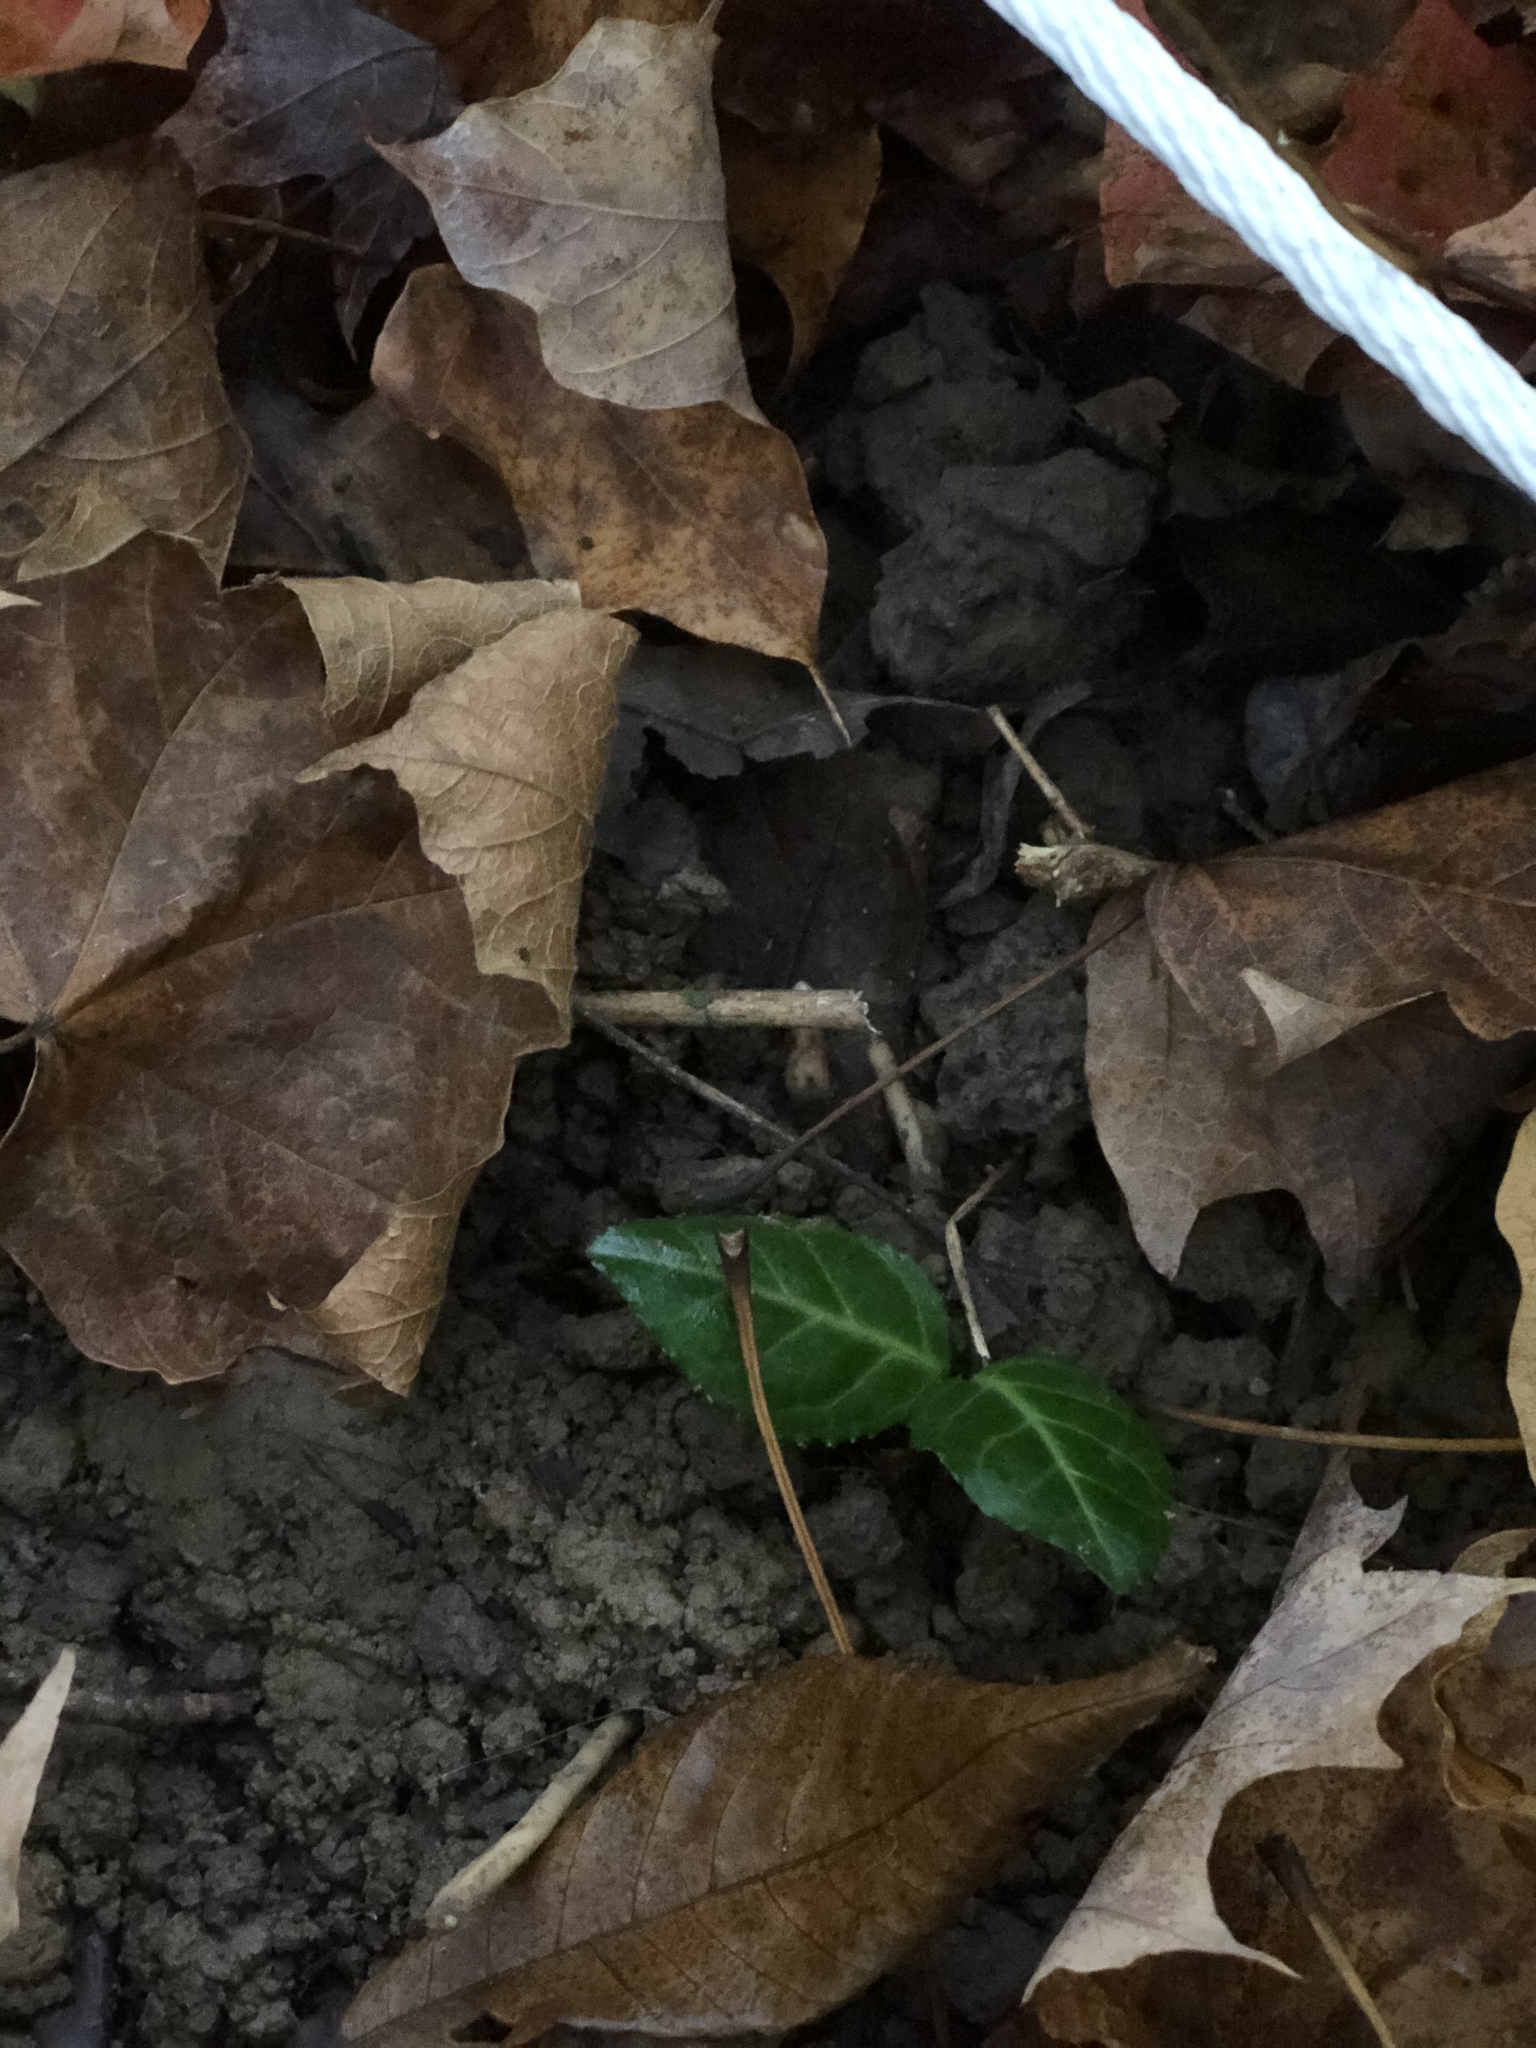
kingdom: Plantae
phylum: Tracheophyta
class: Magnoliopsida
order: Celastrales
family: Celastraceae
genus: Euonymus
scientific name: Euonymus fortunei
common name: Climbing euonymus
